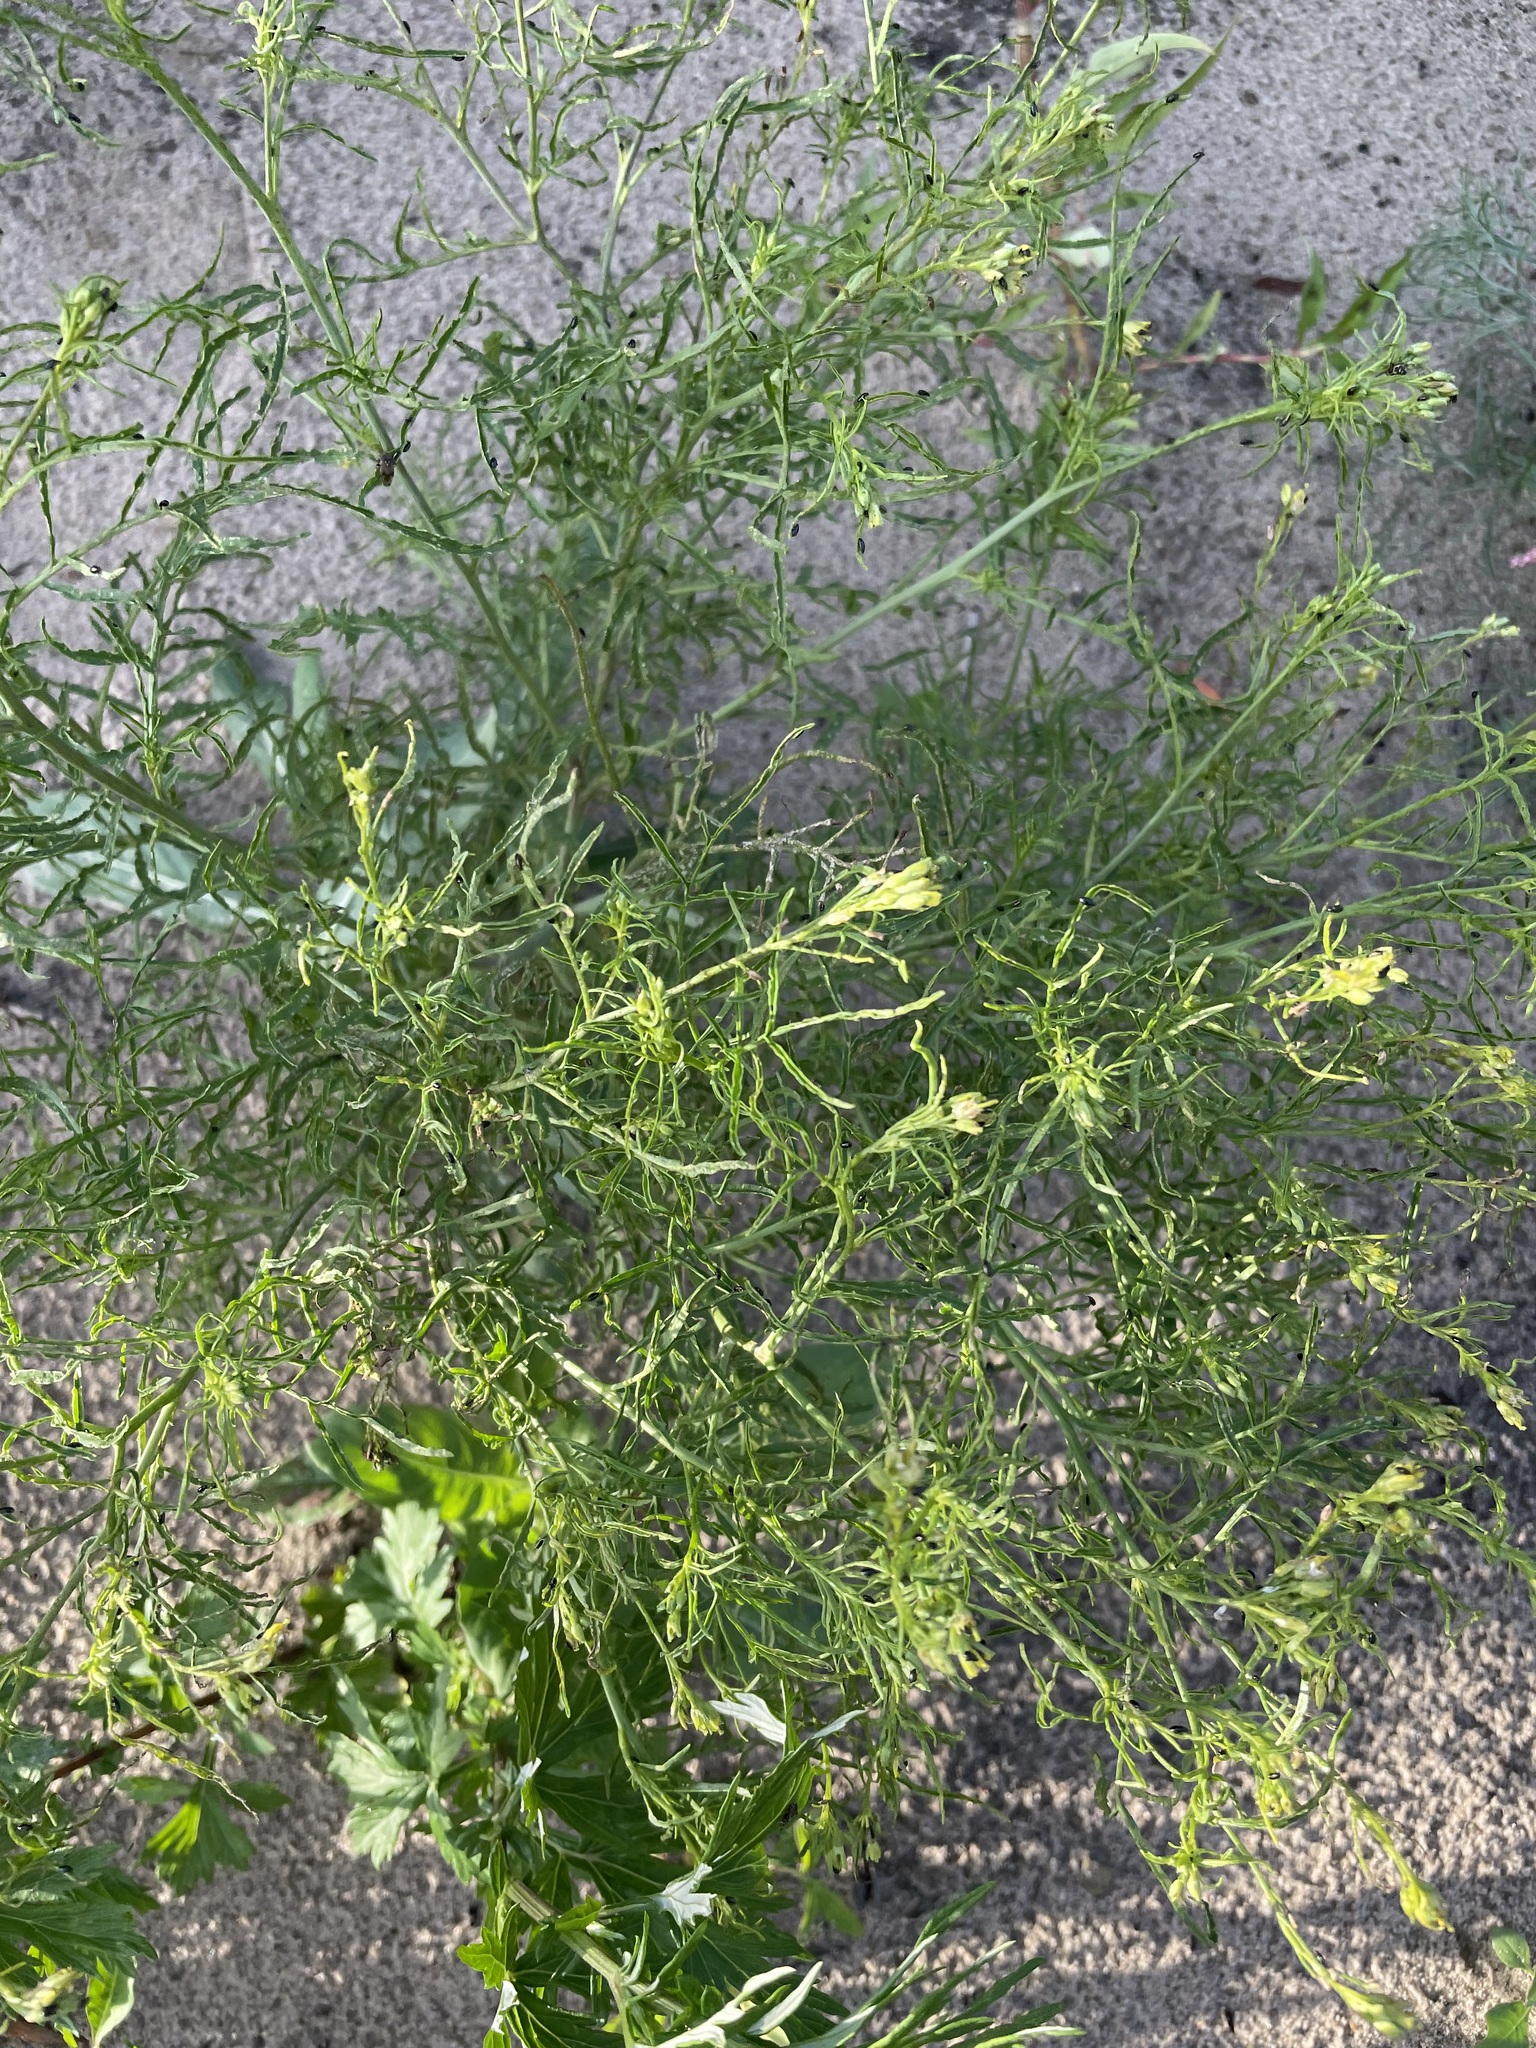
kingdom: Plantae
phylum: Tracheophyta
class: Magnoliopsida
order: Brassicales
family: Brassicaceae
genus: Sisymbrium
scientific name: Sisymbrium altissimum
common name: Tall rocket
